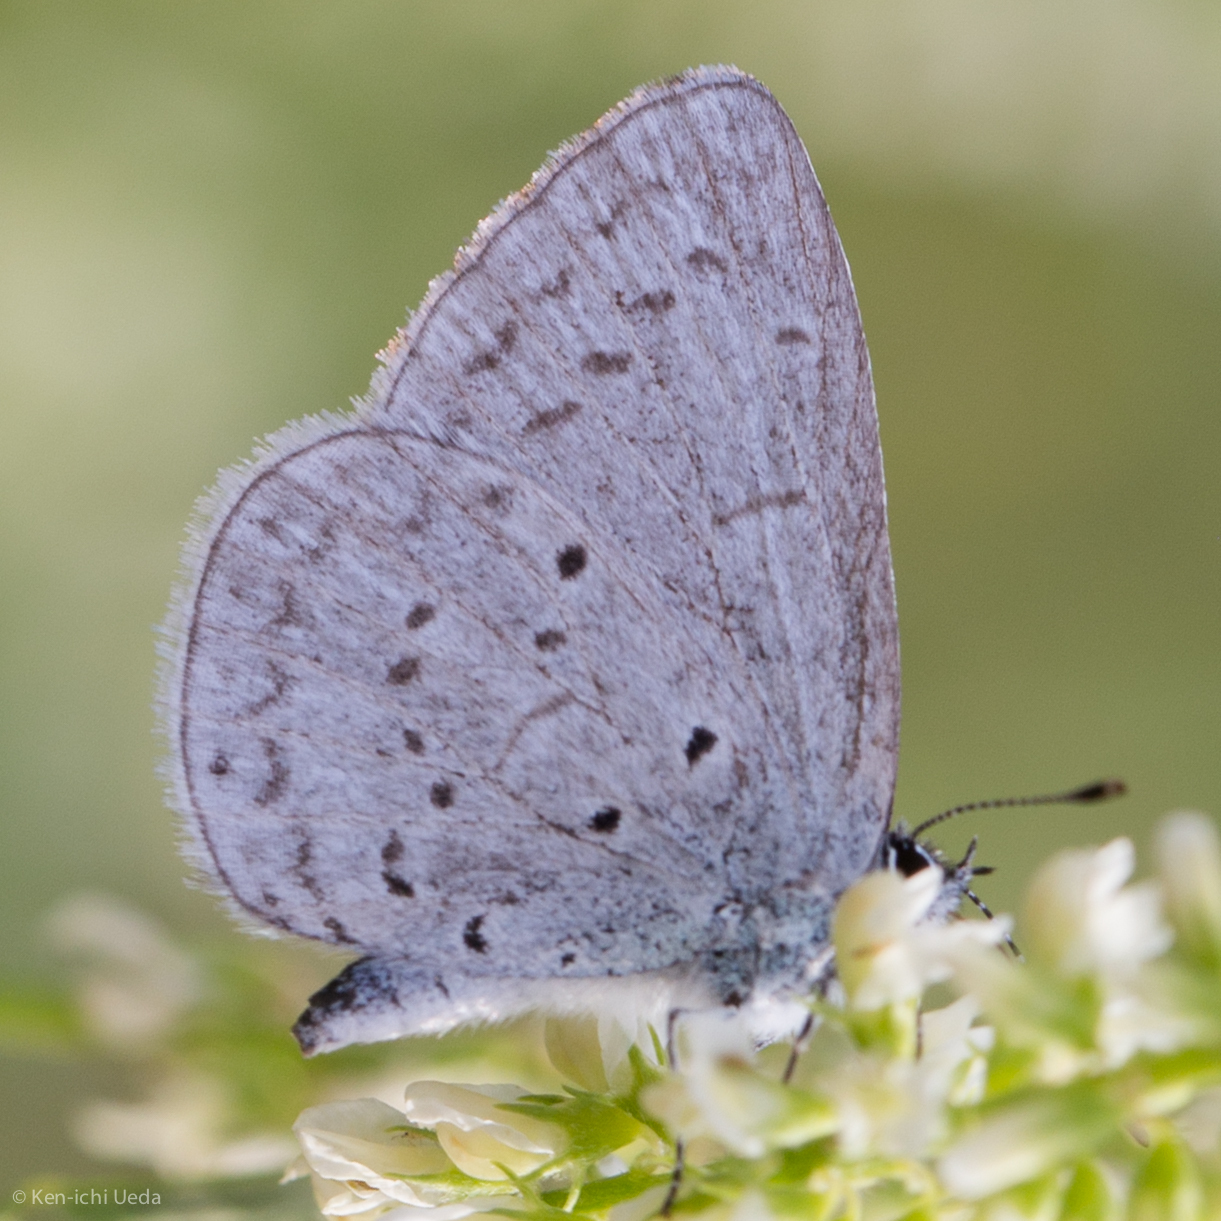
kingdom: Animalia
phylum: Arthropoda
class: Insecta
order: Lepidoptera
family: Lycaenidae
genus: Celastrina
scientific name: Celastrina ladon
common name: Spring azure
